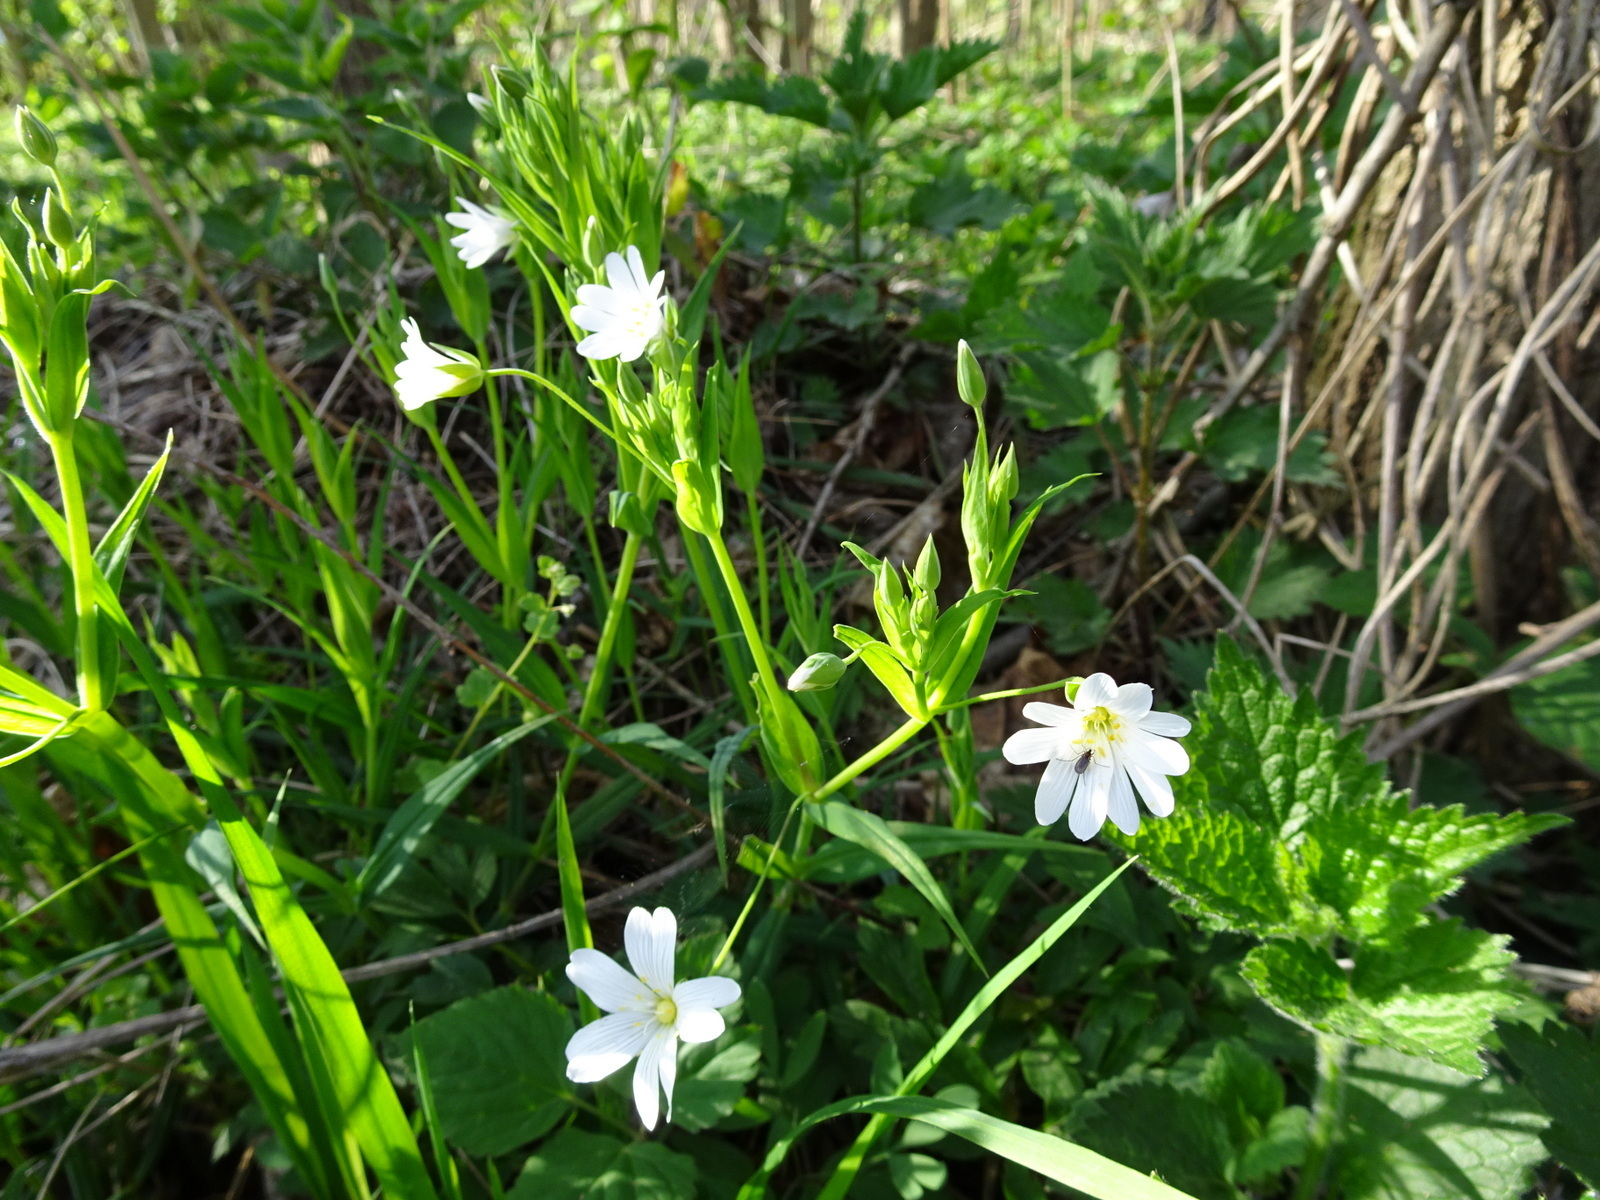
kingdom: Plantae
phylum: Tracheophyta
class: Magnoliopsida
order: Caryophyllales
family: Caryophyllaceae
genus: Rabelera
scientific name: Rabelera holostea
